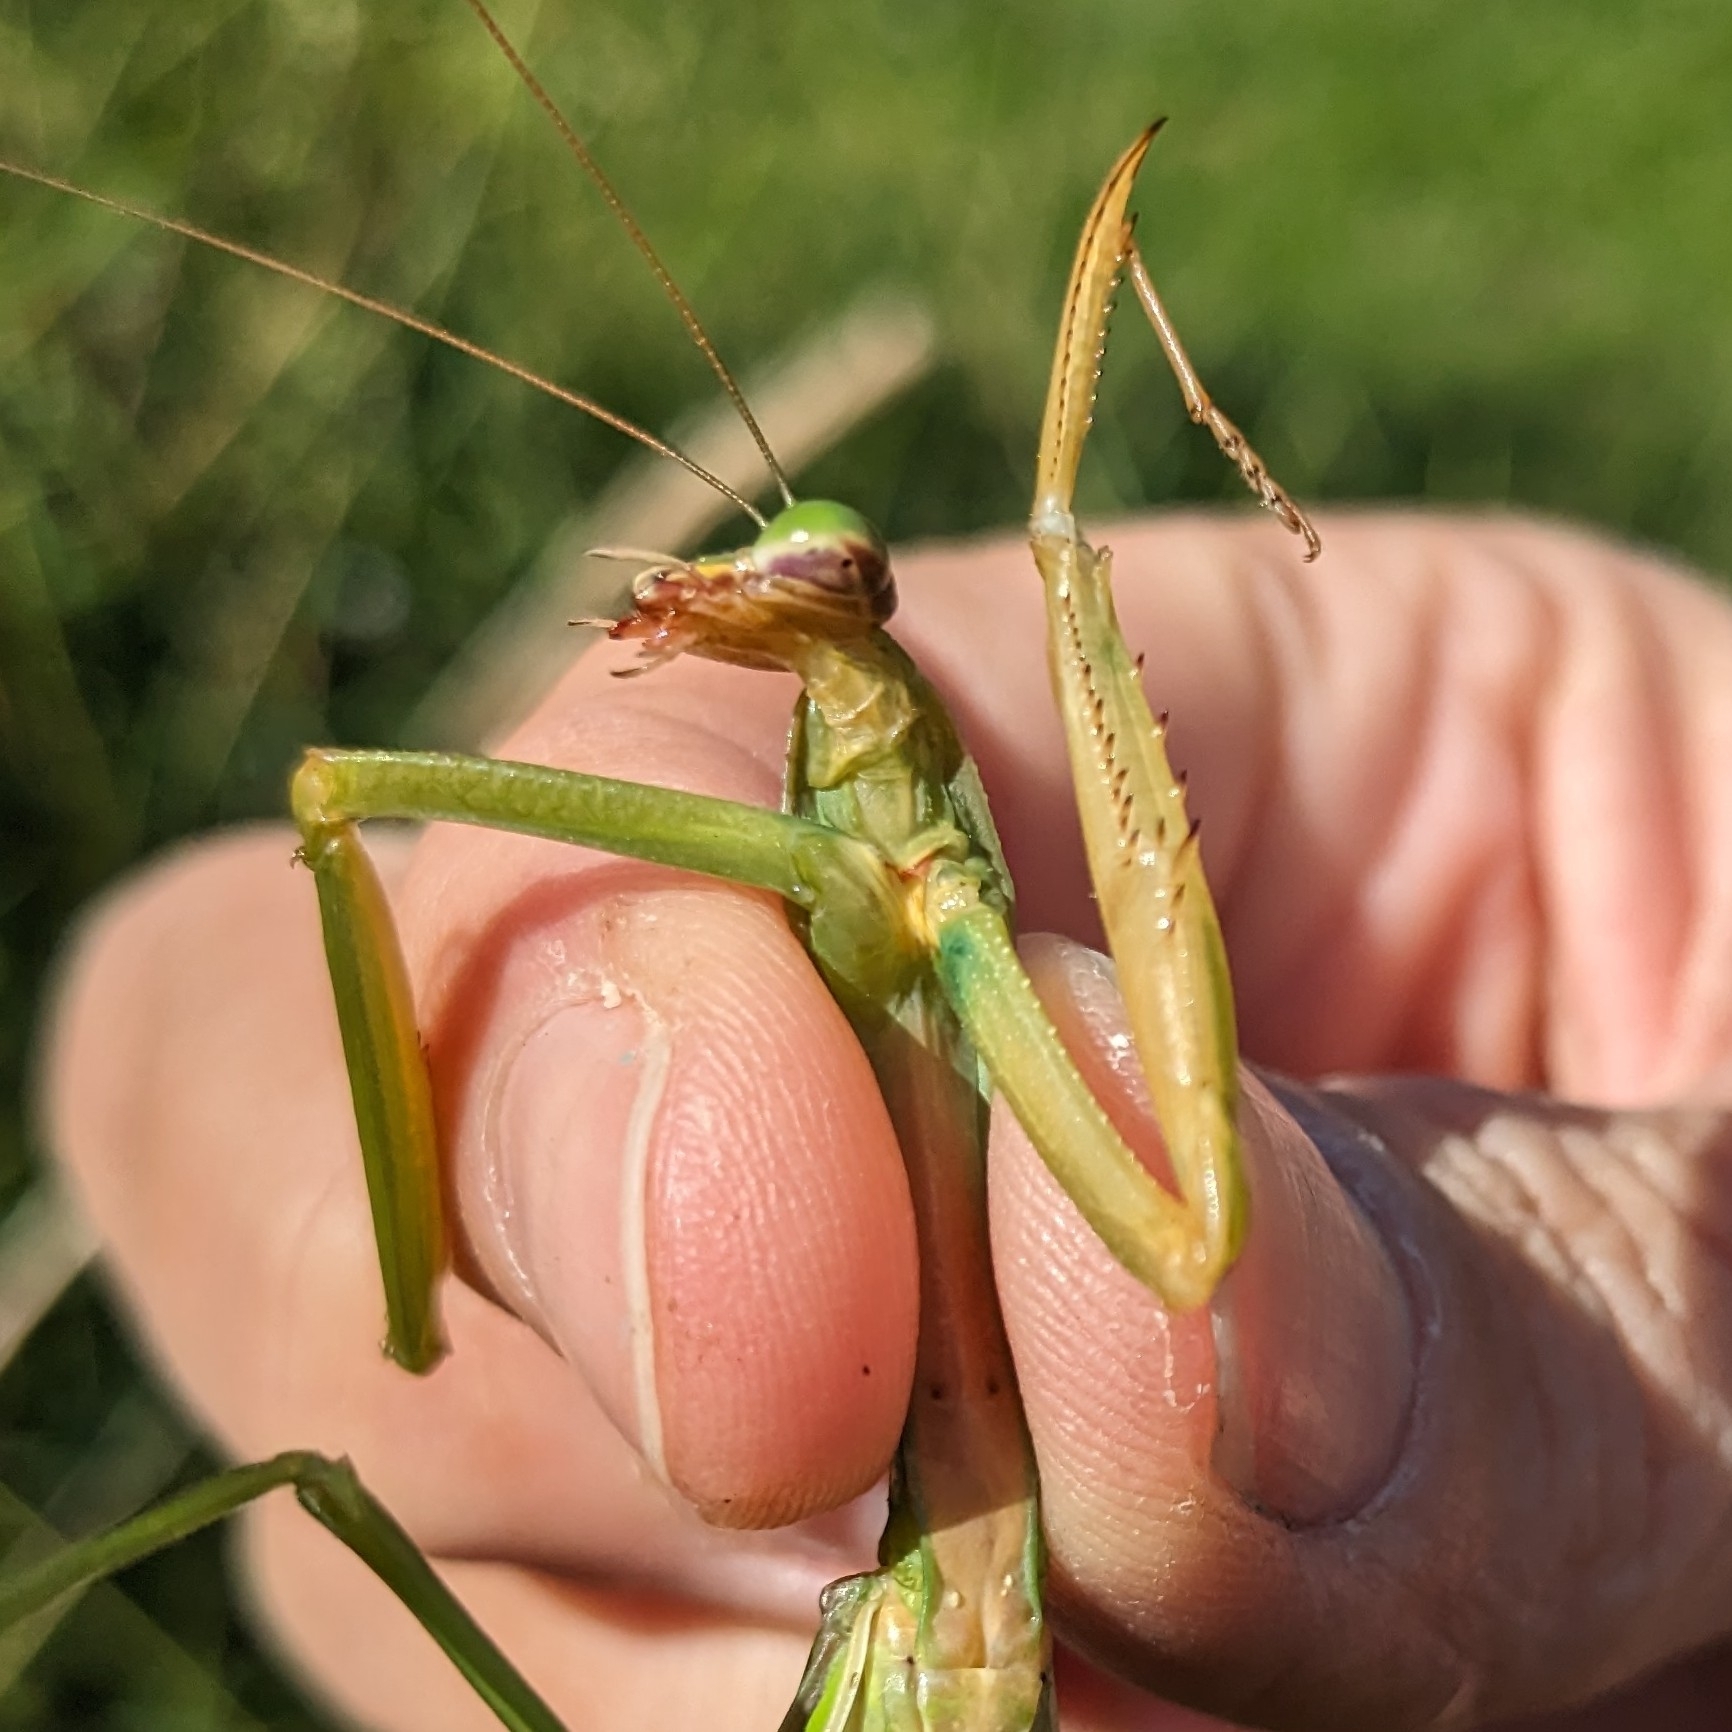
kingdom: Animalia
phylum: Arthropoda
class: Insecta
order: Mantodea
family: Mantidae
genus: Tenodera
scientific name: Tenodera sinensis
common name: Chinese mantis
